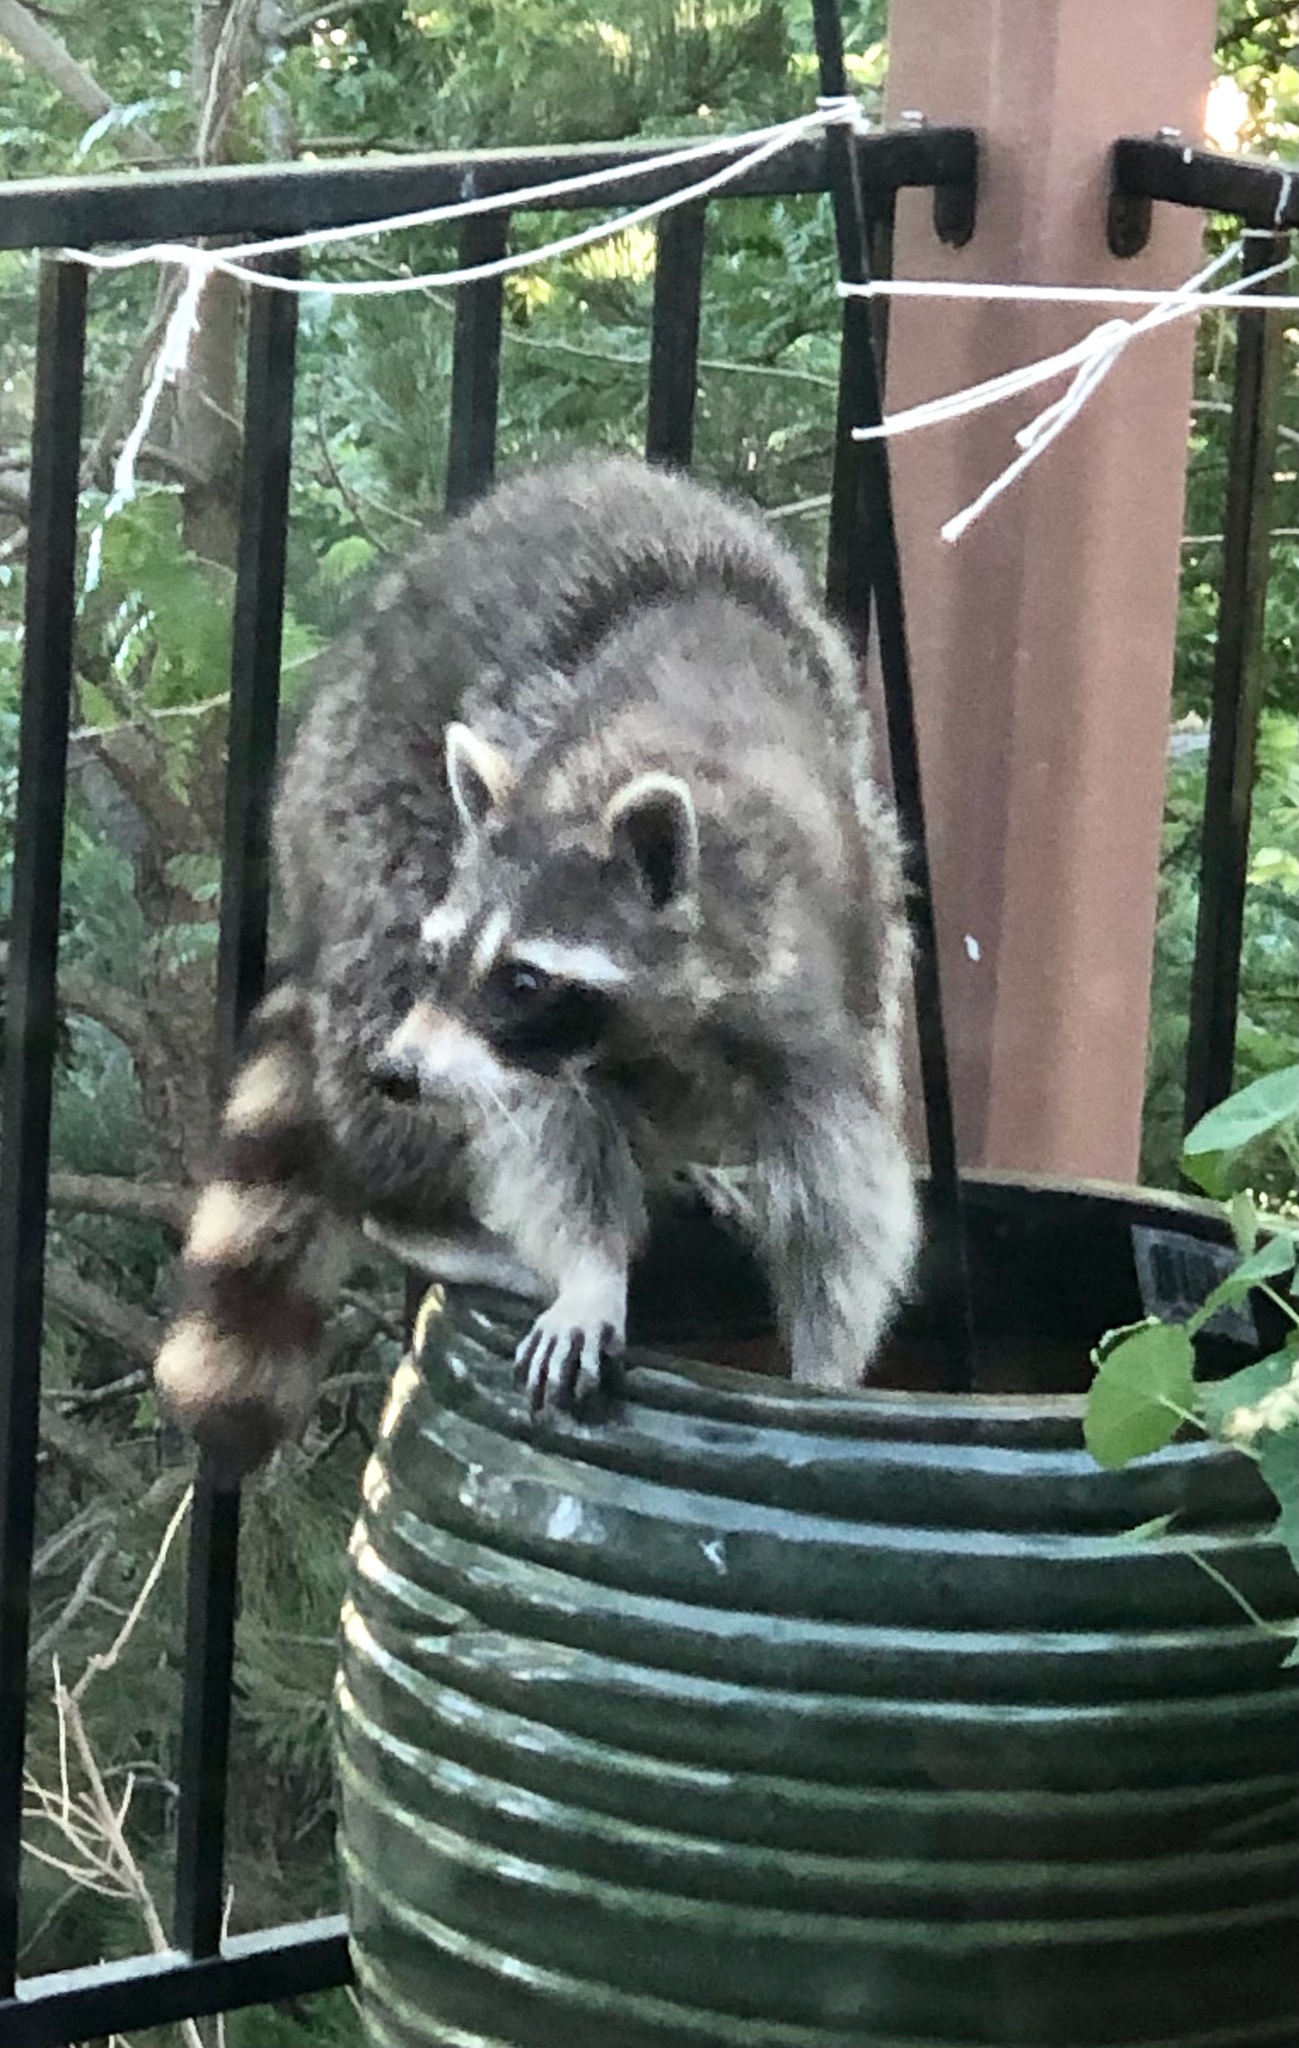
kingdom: Animalia
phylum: Chordata
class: Mammalia
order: Carnivora
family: Procyonidae
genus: Procyon
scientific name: Procyon lotor
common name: Raccoon
